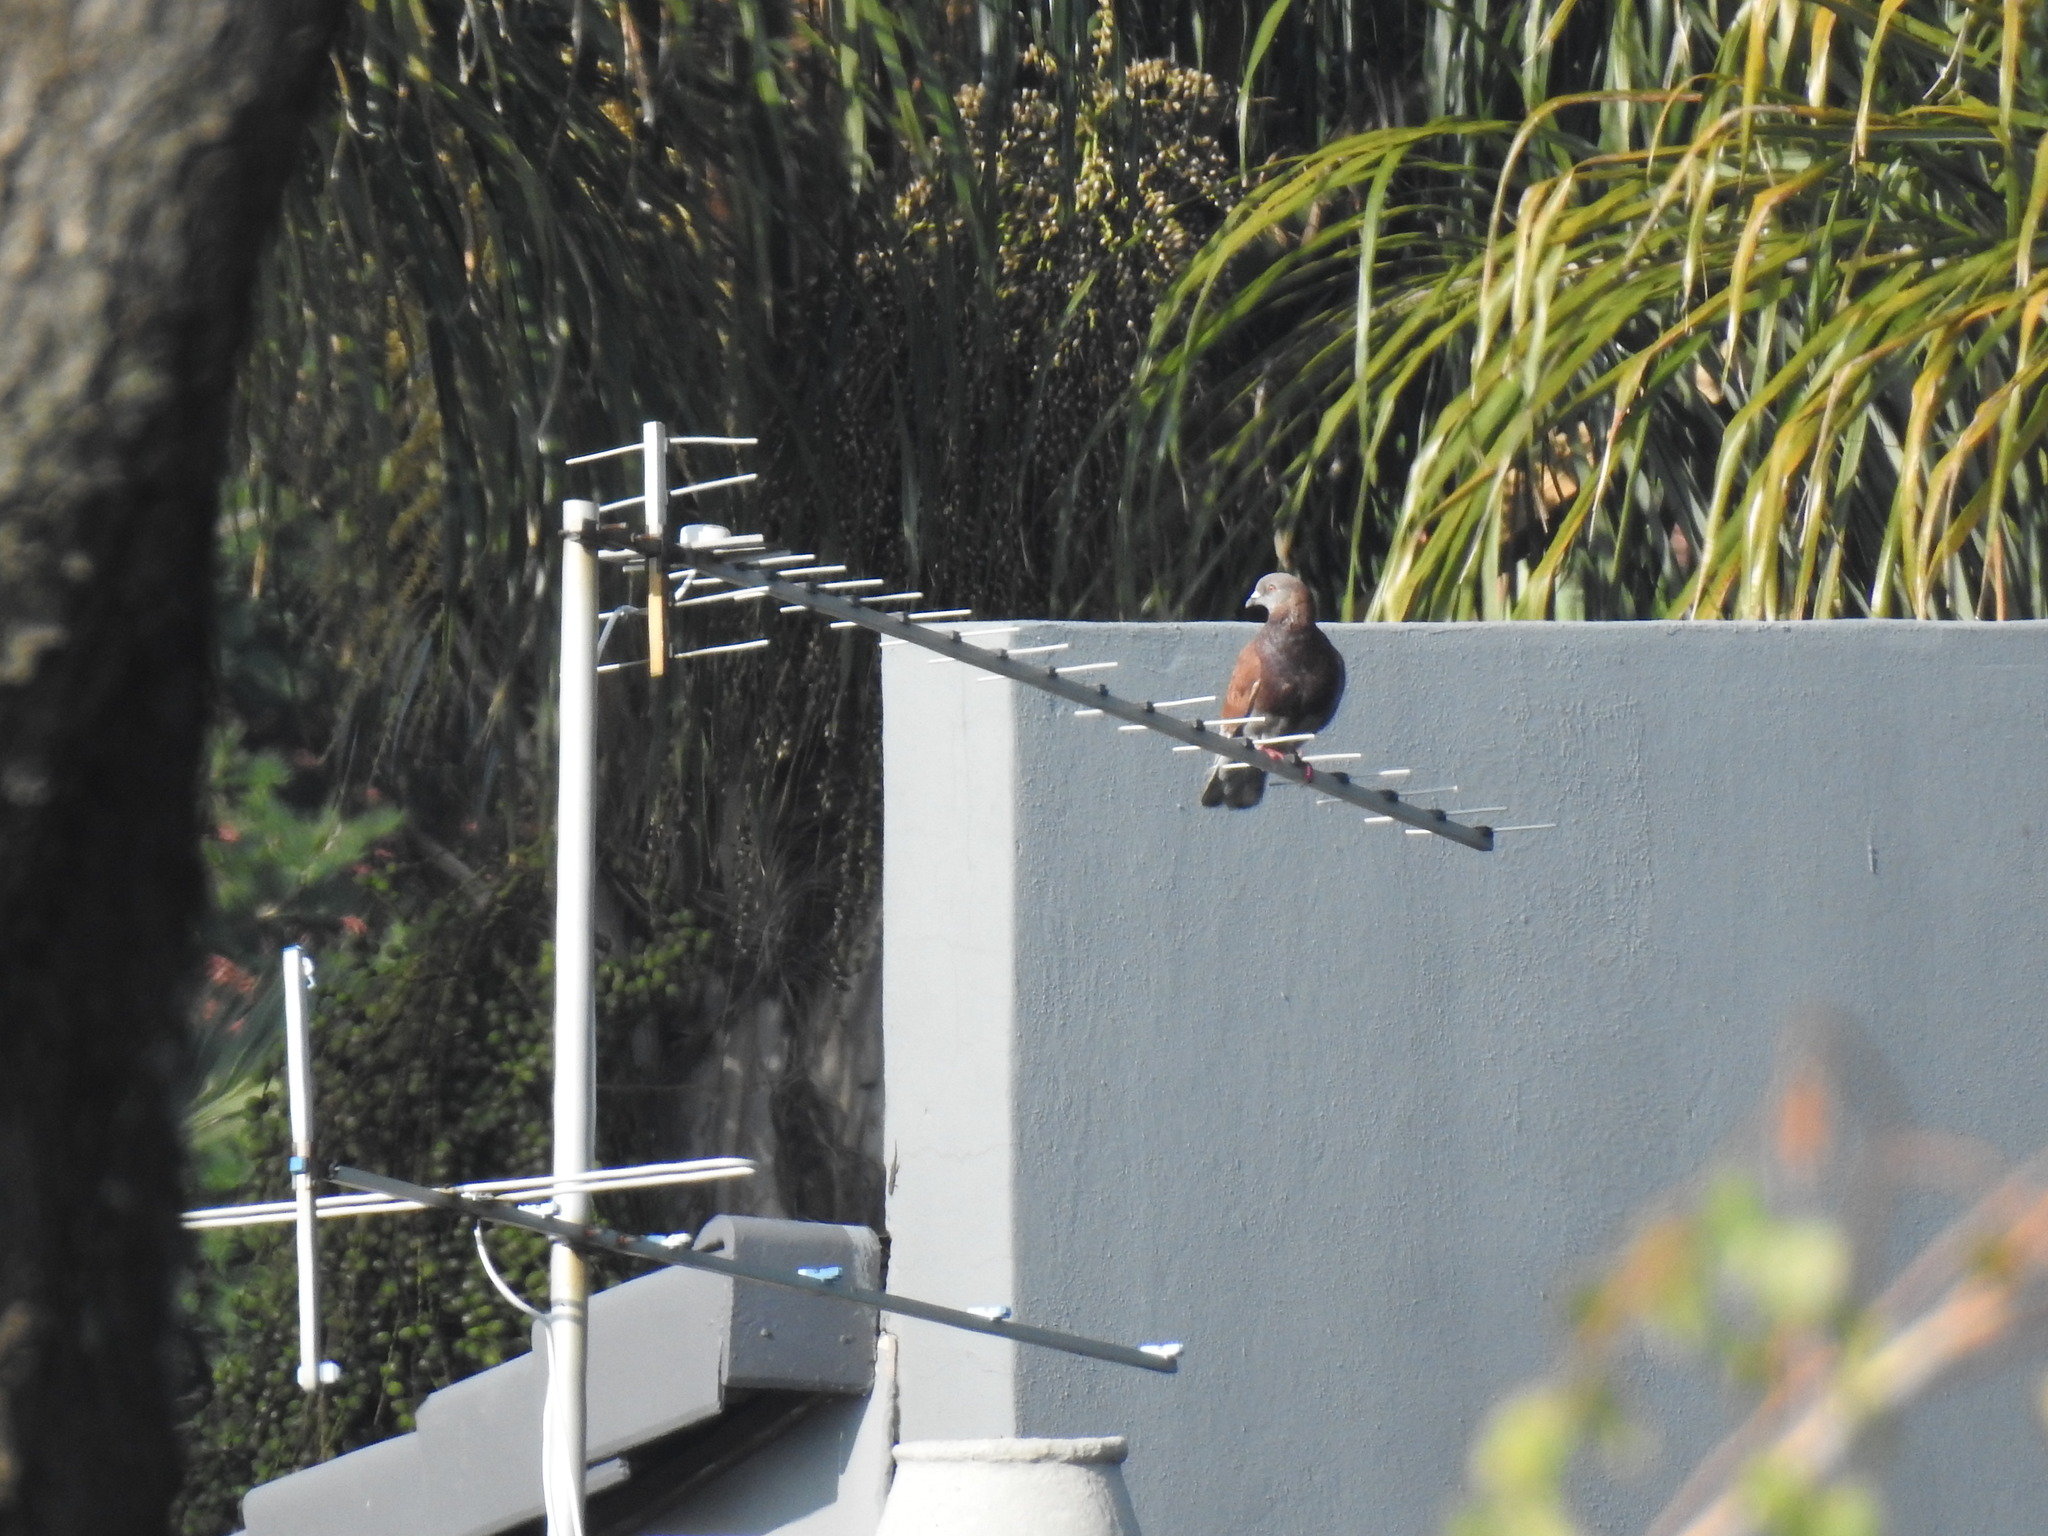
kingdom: Animalia
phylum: Chordata
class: Aves
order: Columbiformes
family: Columbidae
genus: Columba
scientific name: Columba livia
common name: Rock pigeon
